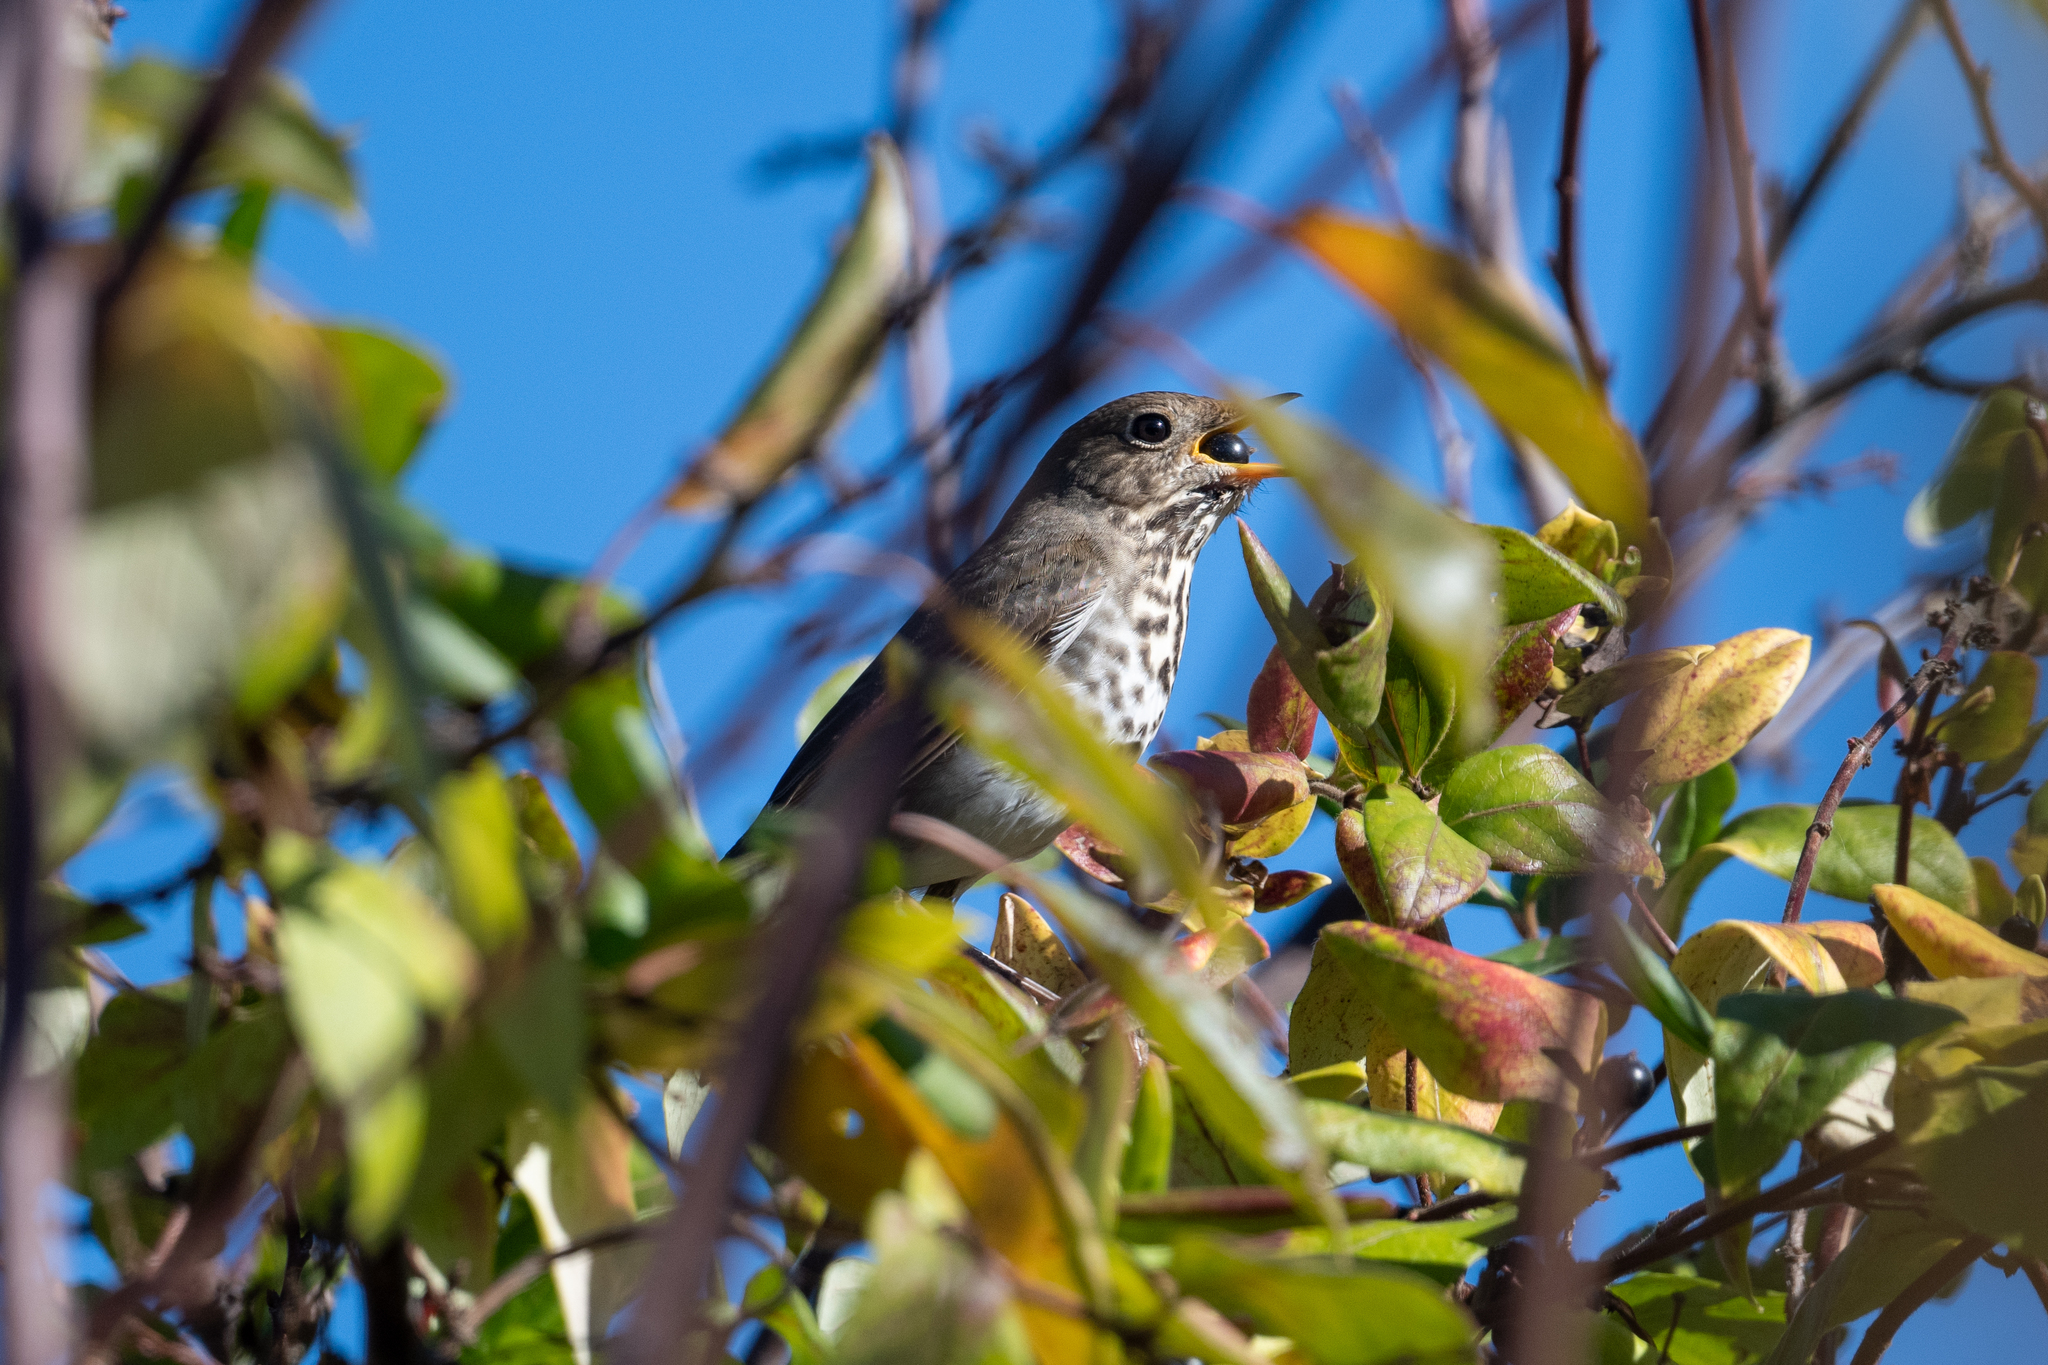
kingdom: Animalia
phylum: Chordata
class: Aves
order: Passeriformes
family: Turdidae
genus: Catharus
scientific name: Catharus guttatus
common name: Hermit thrush
